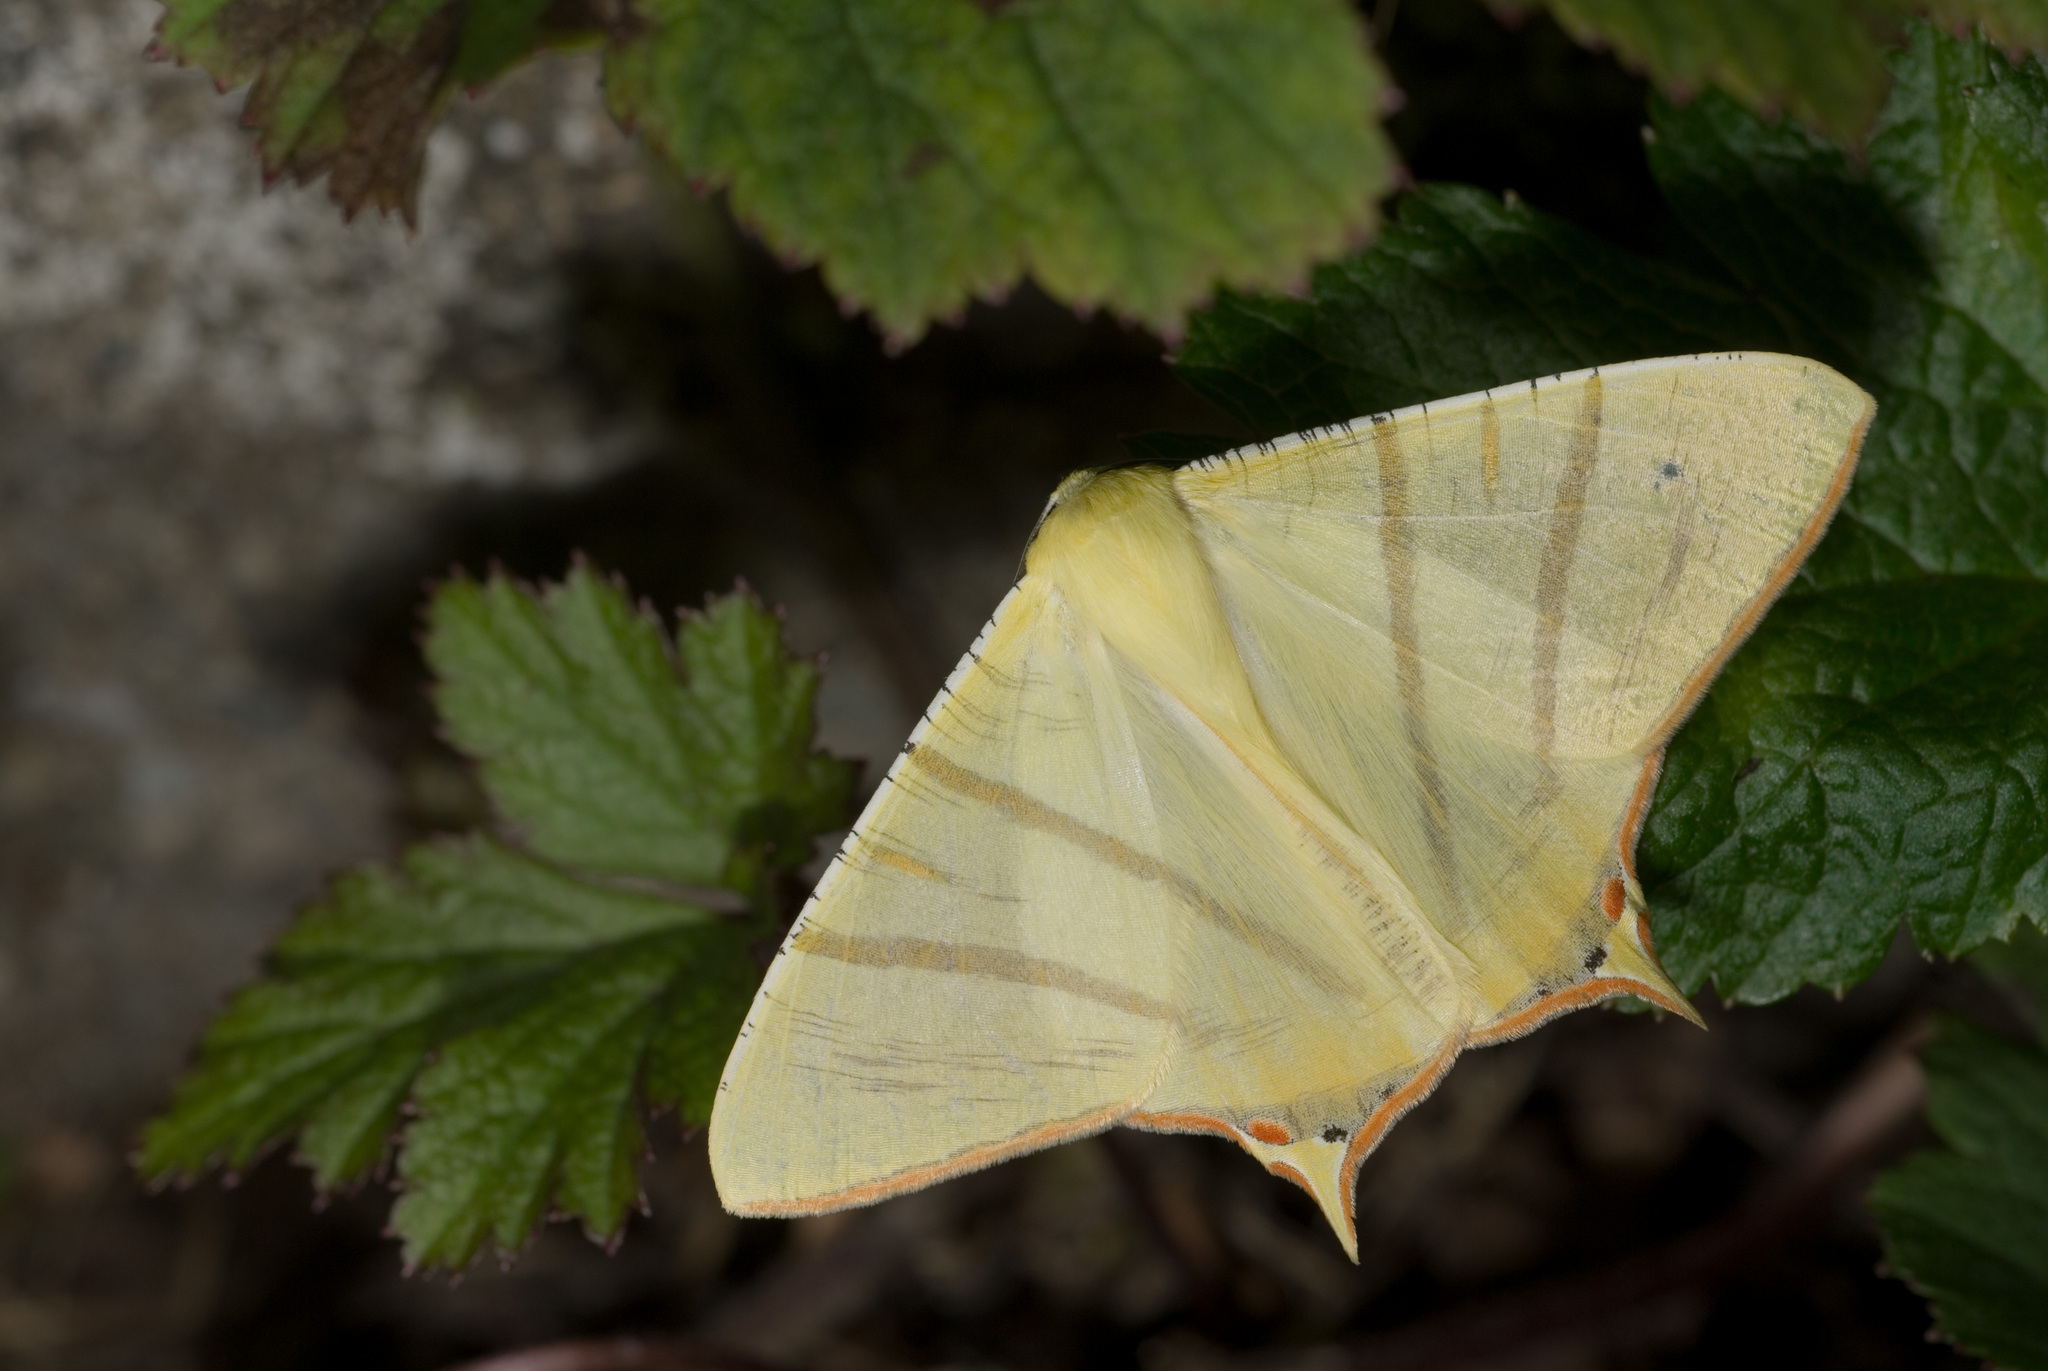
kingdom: Animalia
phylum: Arthropoda
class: Insecta
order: Lepidoptera
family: Geometridae
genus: Ourapteryx
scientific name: Ourapteryx sciticaudaria
